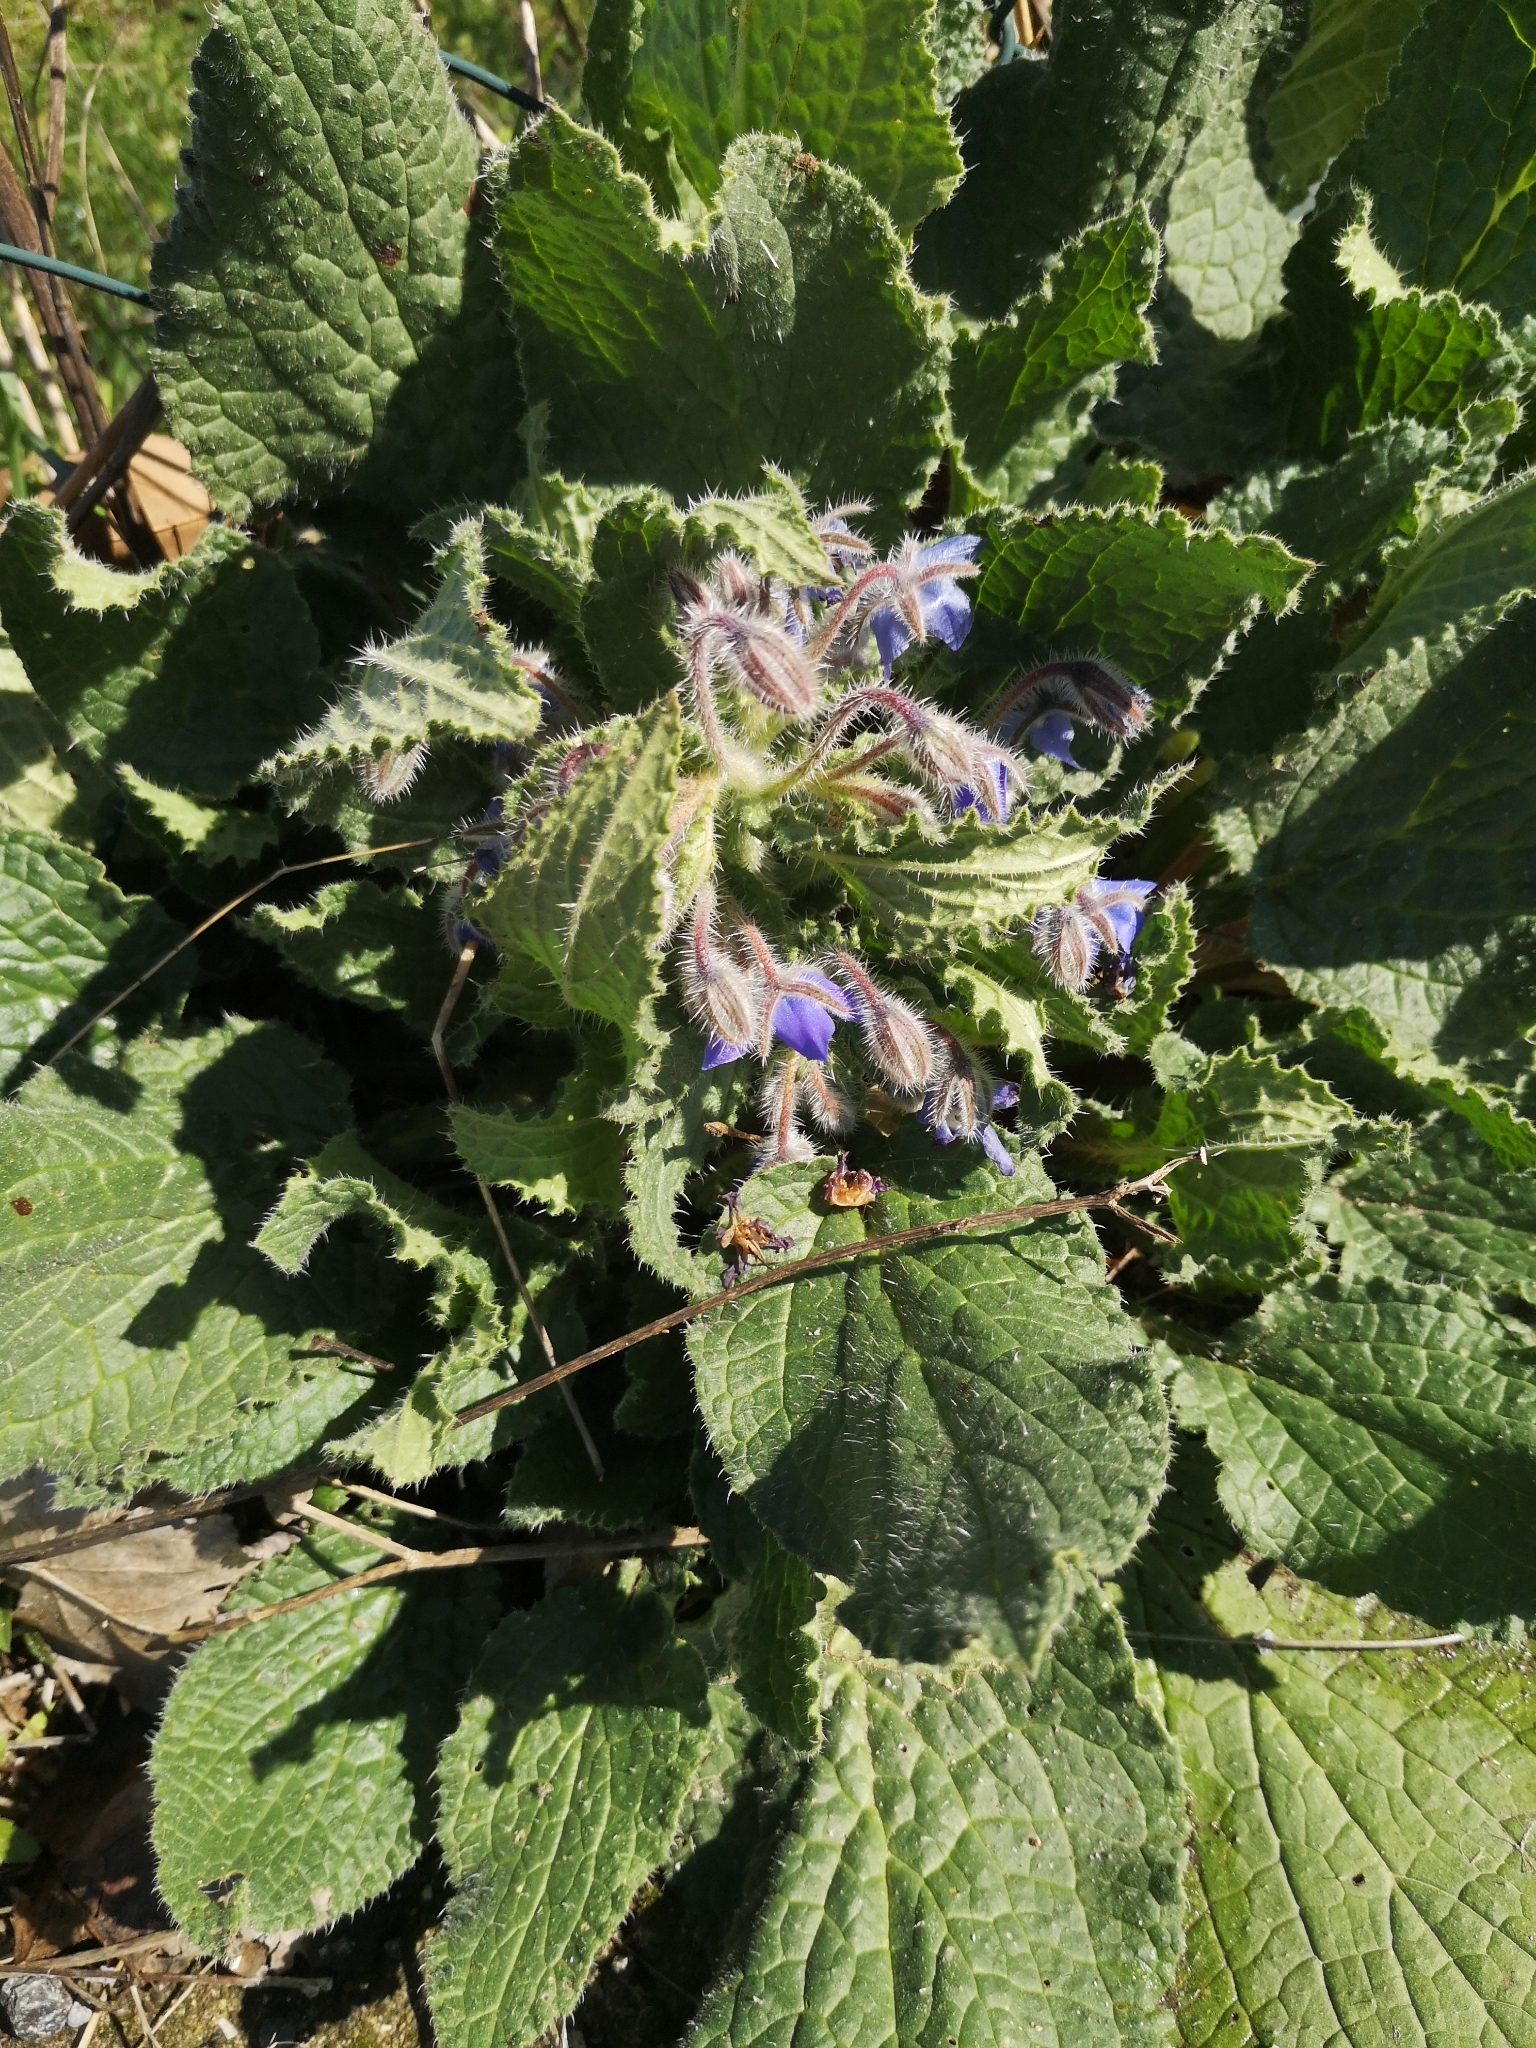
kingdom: Plantae
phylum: Tracheophyta
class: Magnoliopsida
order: Boraginales
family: Boraginaceae
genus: Borago
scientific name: Borago officinalis
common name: Borage
